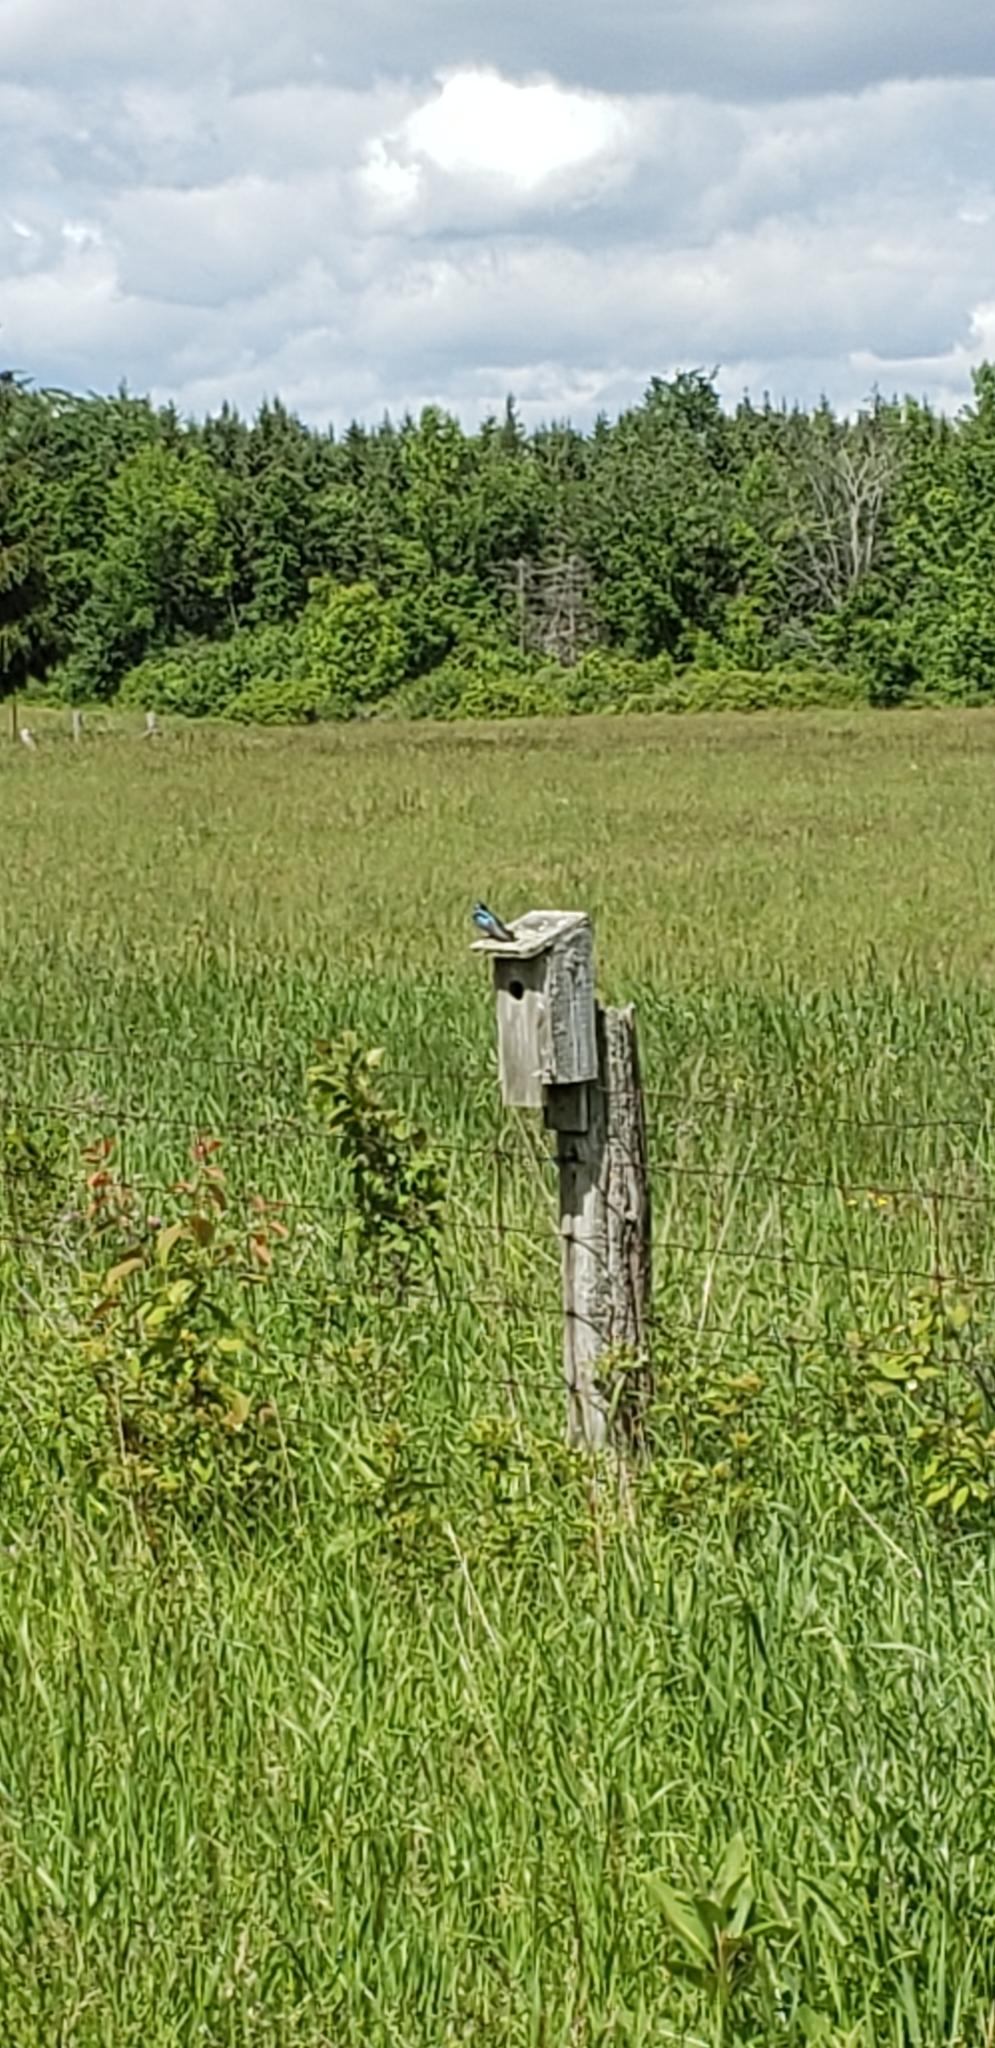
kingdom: Animalia
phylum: Chordata
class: Aves
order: Passeriformes
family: Hirundinidae
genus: Tachycineta
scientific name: Tachycineta bicolor
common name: Tree swallow
